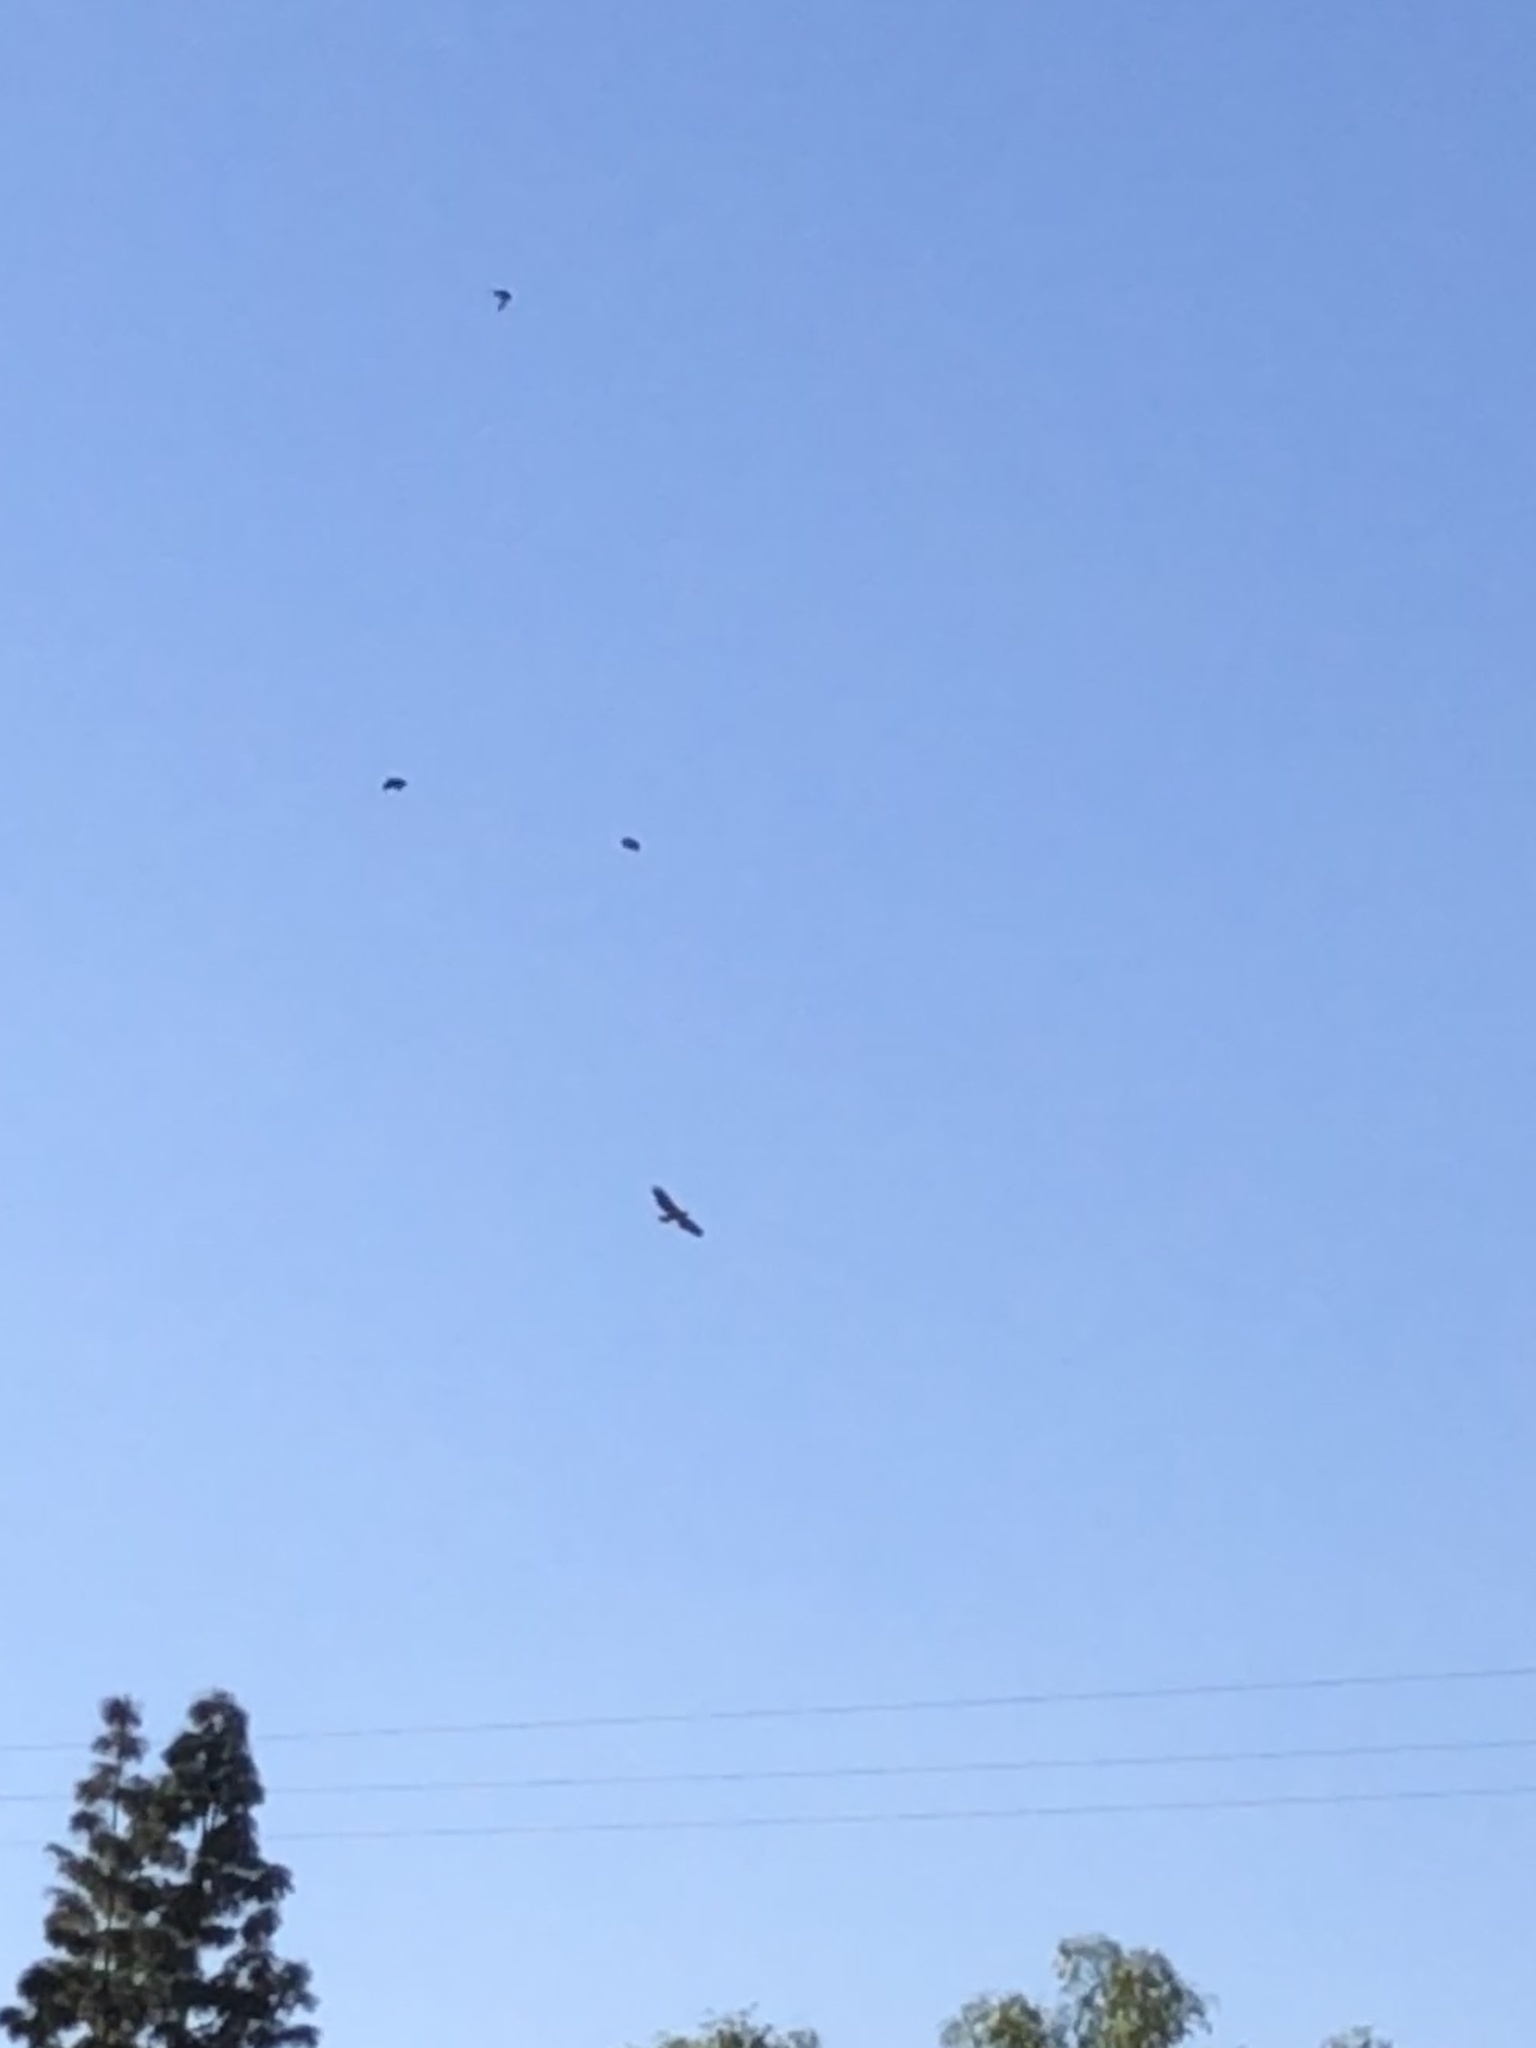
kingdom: Animalia
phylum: Chordata
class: Aves
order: Accipitriformes
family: Accipitridae
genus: Buteo
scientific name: Buteo jamaicensis
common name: Red-tailed hawk
